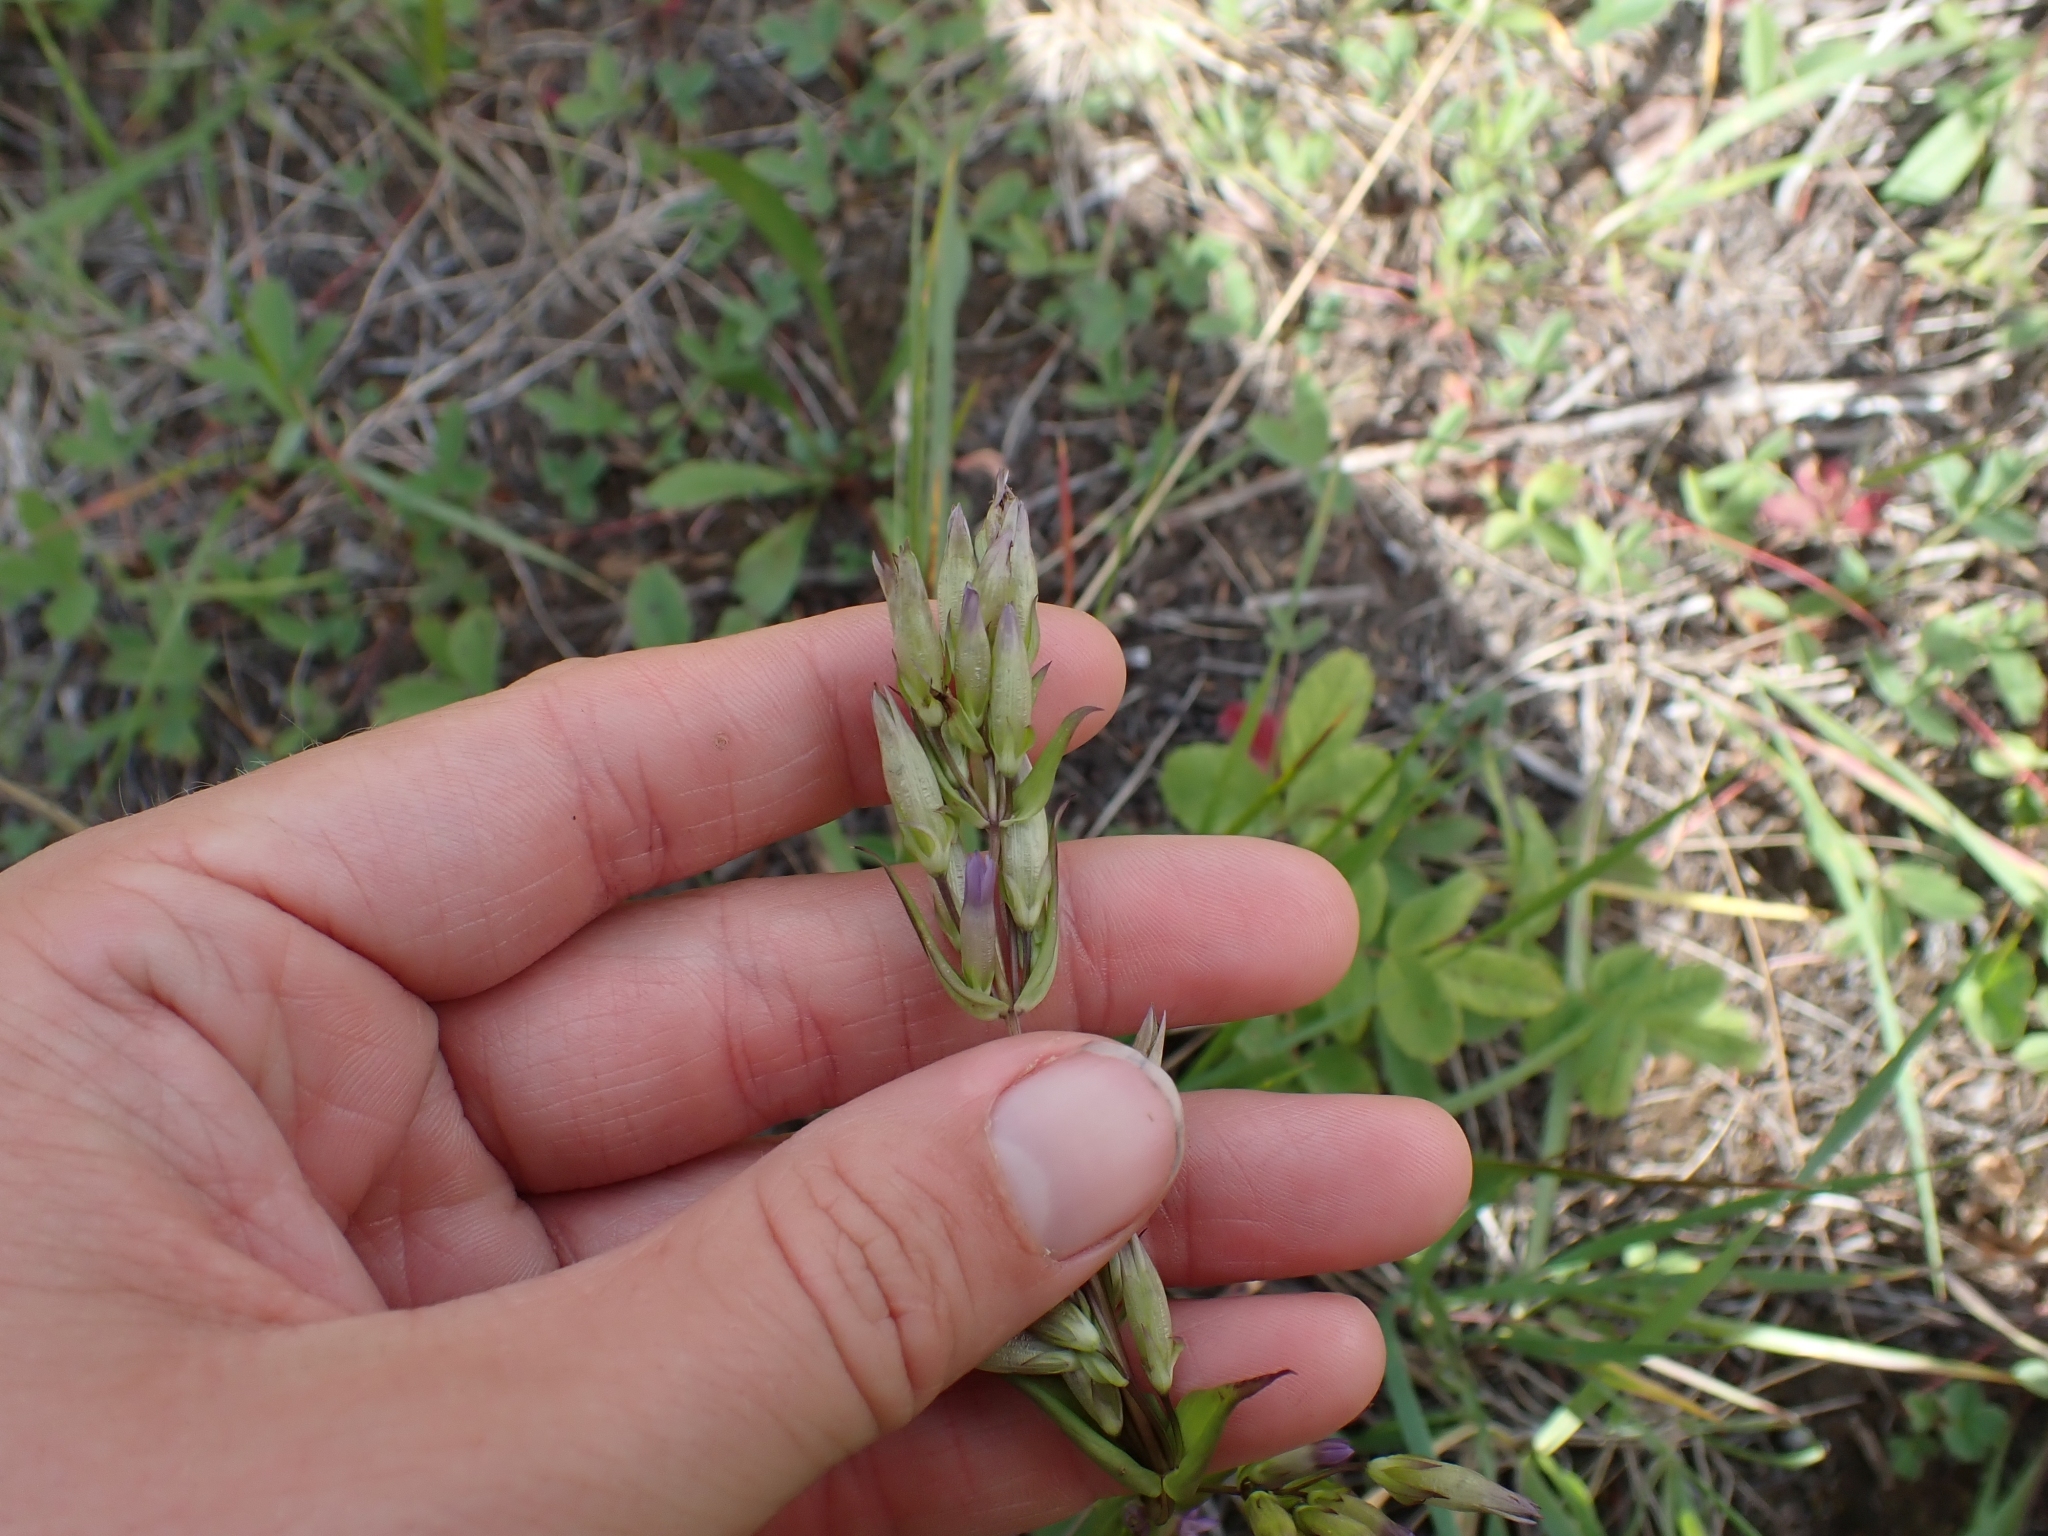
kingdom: Plantae
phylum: Tracheophyta
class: Magnoliopsida
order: Gentianales
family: Gentianaceae
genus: Gentianella
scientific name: Gentianella amarella
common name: Autumn gentian
